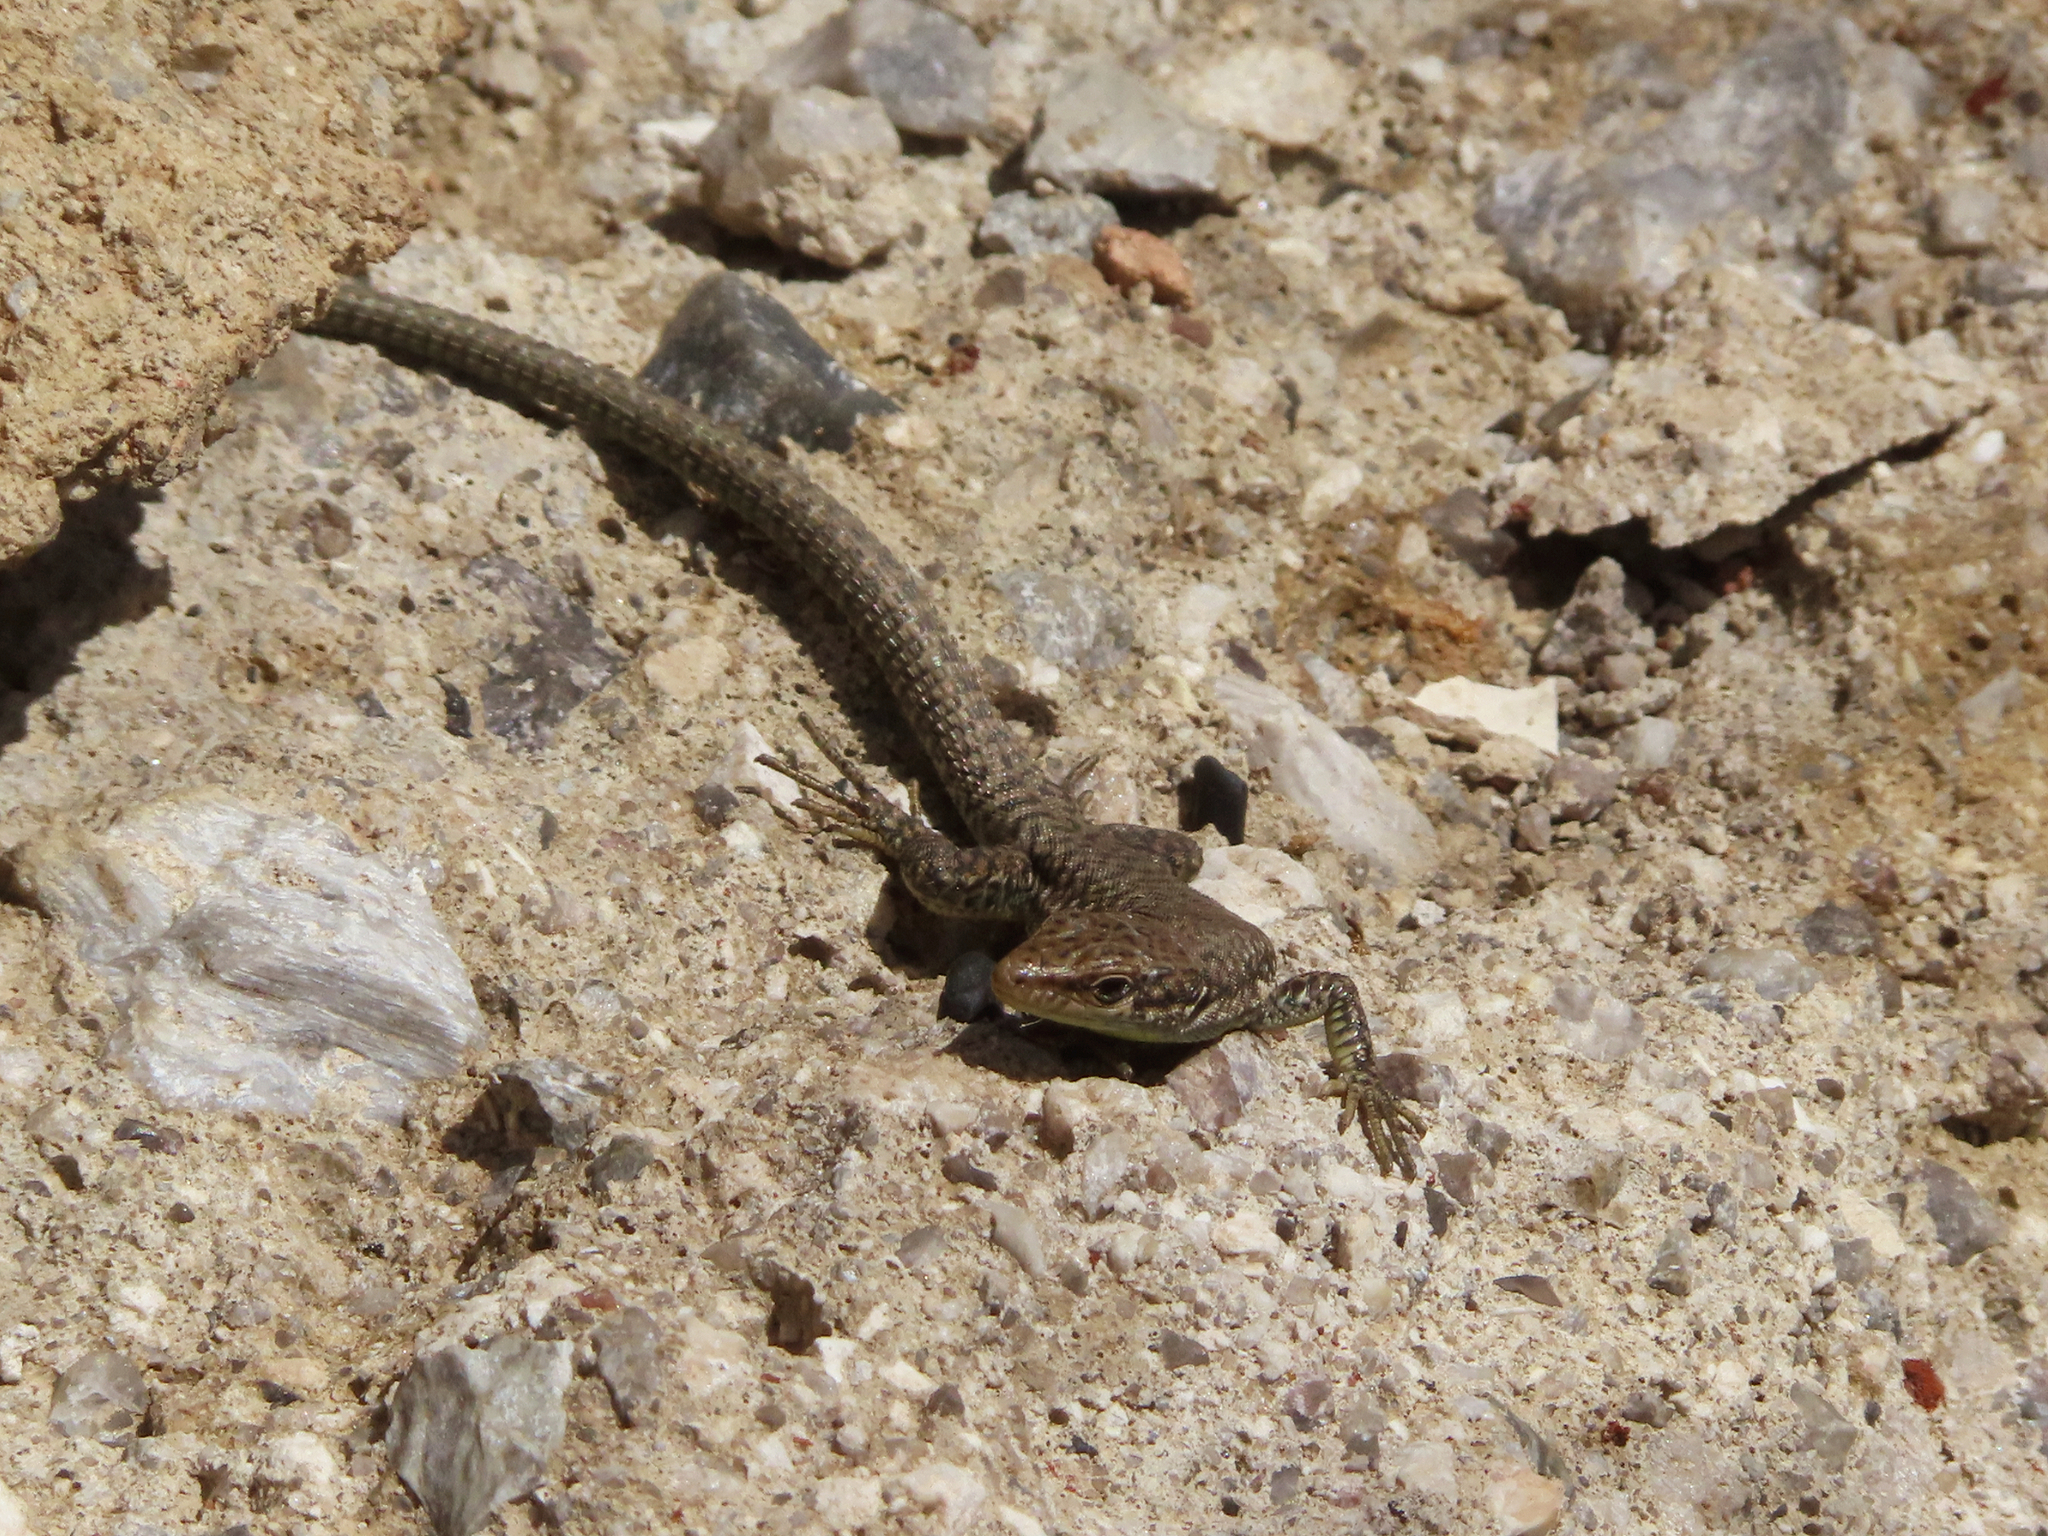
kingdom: Animalia
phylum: Chordata
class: Squamata
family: Lacertidae
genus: Darevskia
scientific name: Darevskia
